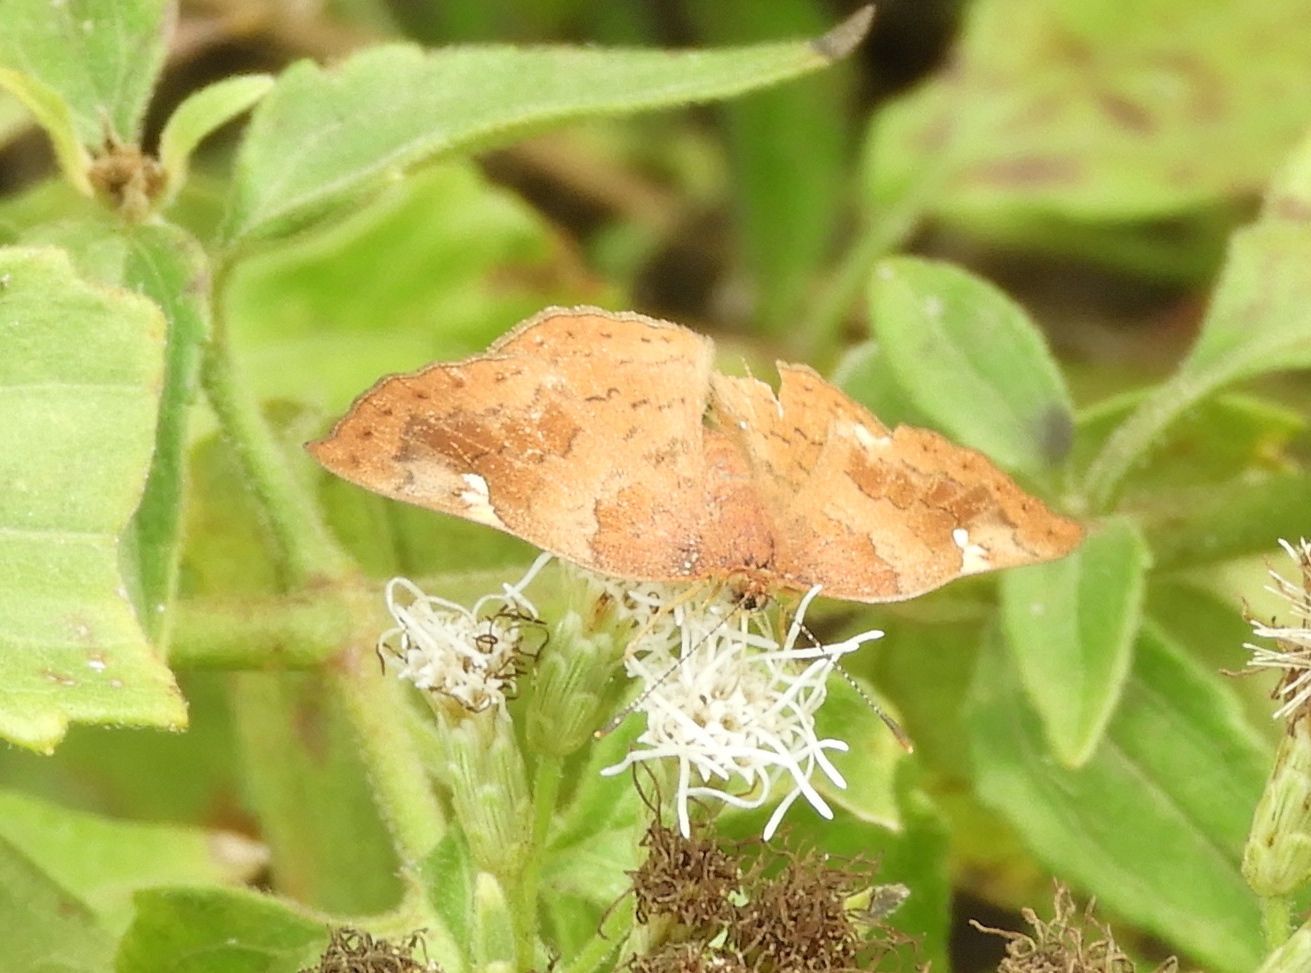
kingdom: Animalia
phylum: Arthropoda
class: Insecta
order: Lepidoptera
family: Riodinidae
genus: Curvie
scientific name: Curvie emesia
